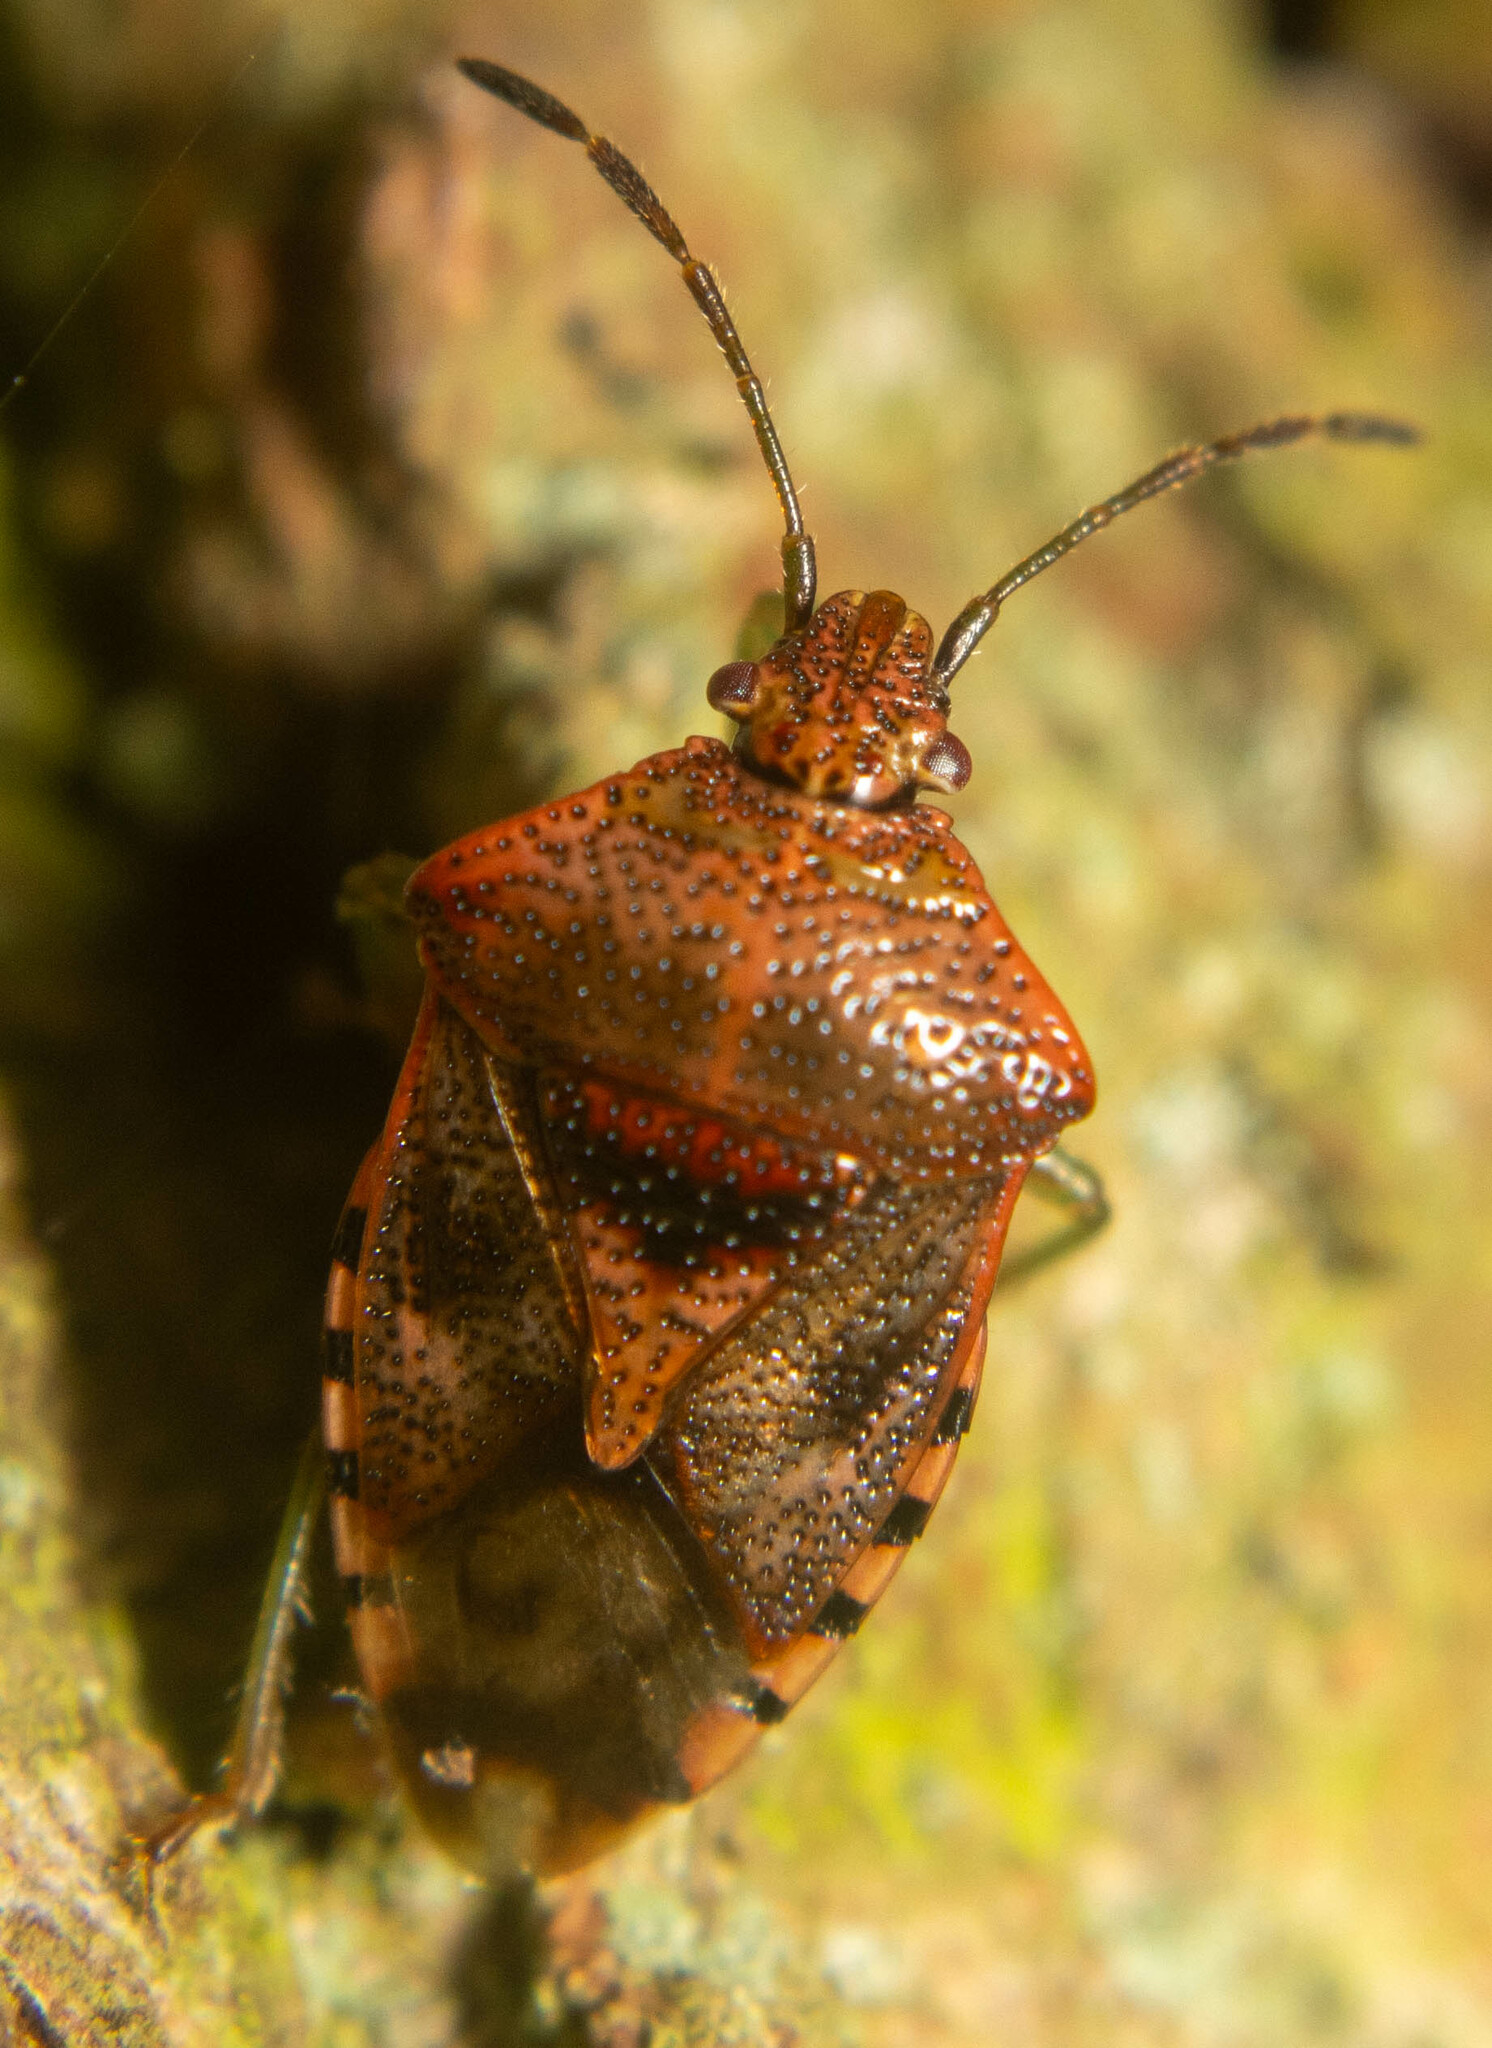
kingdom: Animalia
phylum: Arthropoda
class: Insecta
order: Hemiptera
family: Acanthosomatidae
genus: Elasmucha
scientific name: Elasmucha grisea
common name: Parent bug
